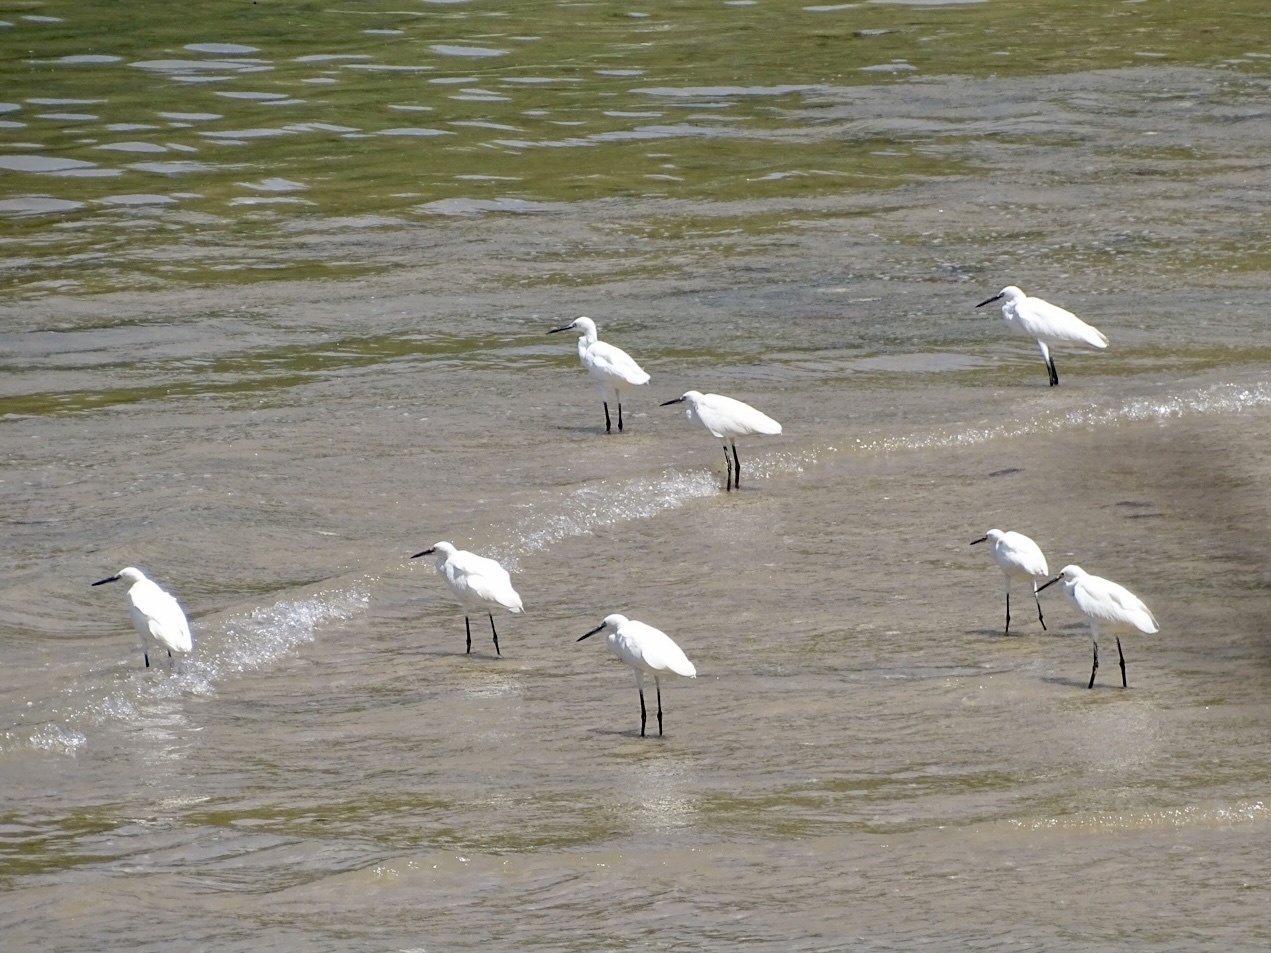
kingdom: Animalia
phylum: Chordata
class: Aves
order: Pelecaniformes
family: Ardeidae
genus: Egretta
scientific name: Egretta garzetta
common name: Little egret
